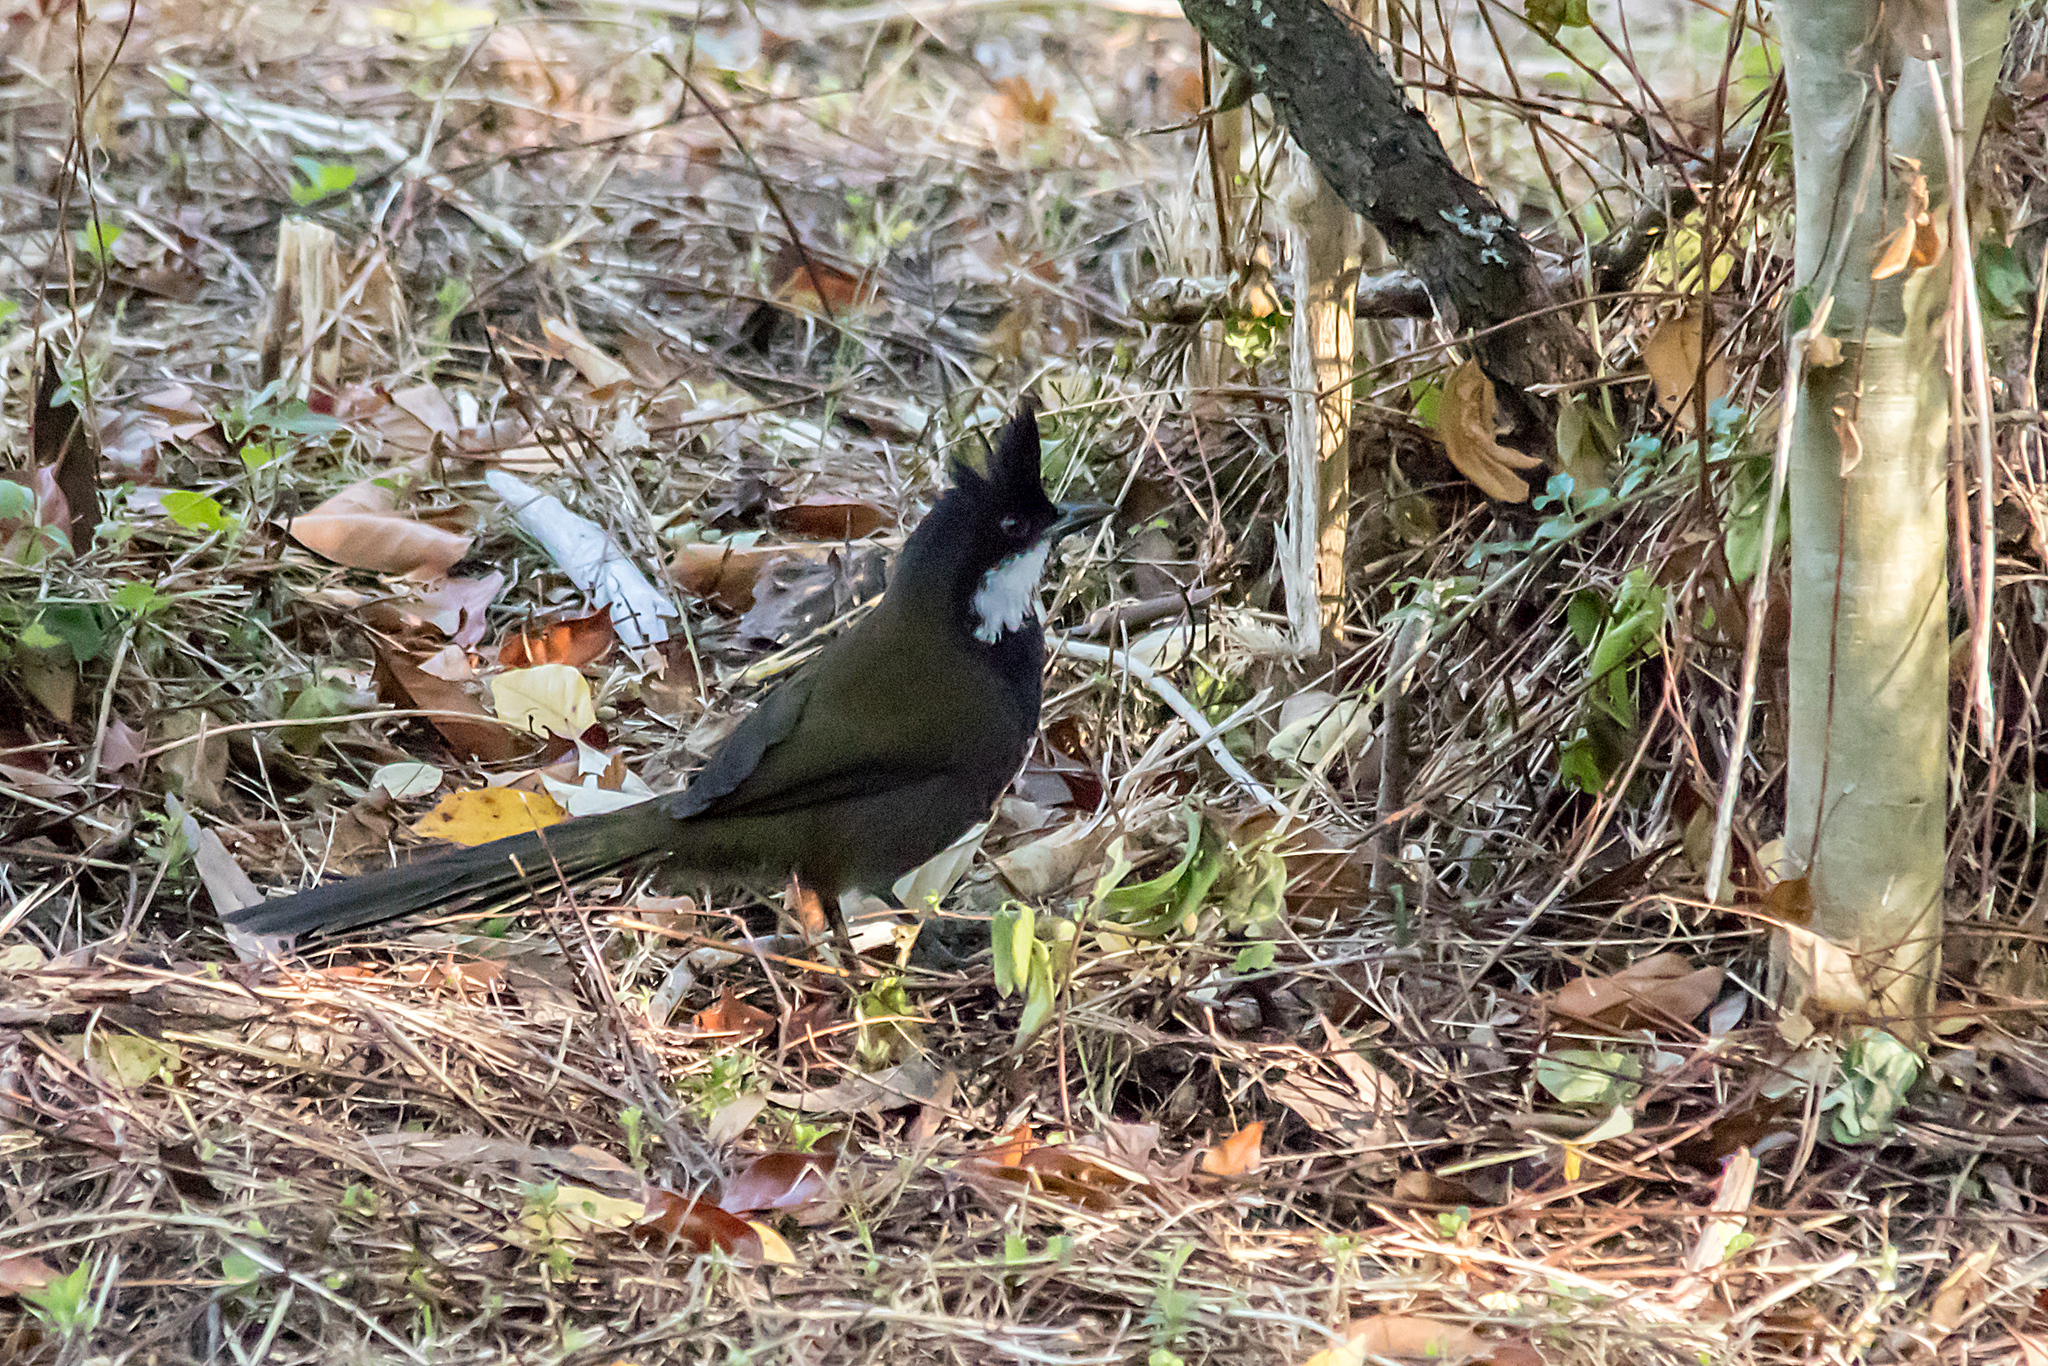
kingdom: Animalia
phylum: Chordata
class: Aves
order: Passeriformes
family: Psophodidae
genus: Psophodes
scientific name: Psophodes olivaceus
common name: Eastern whipbird
